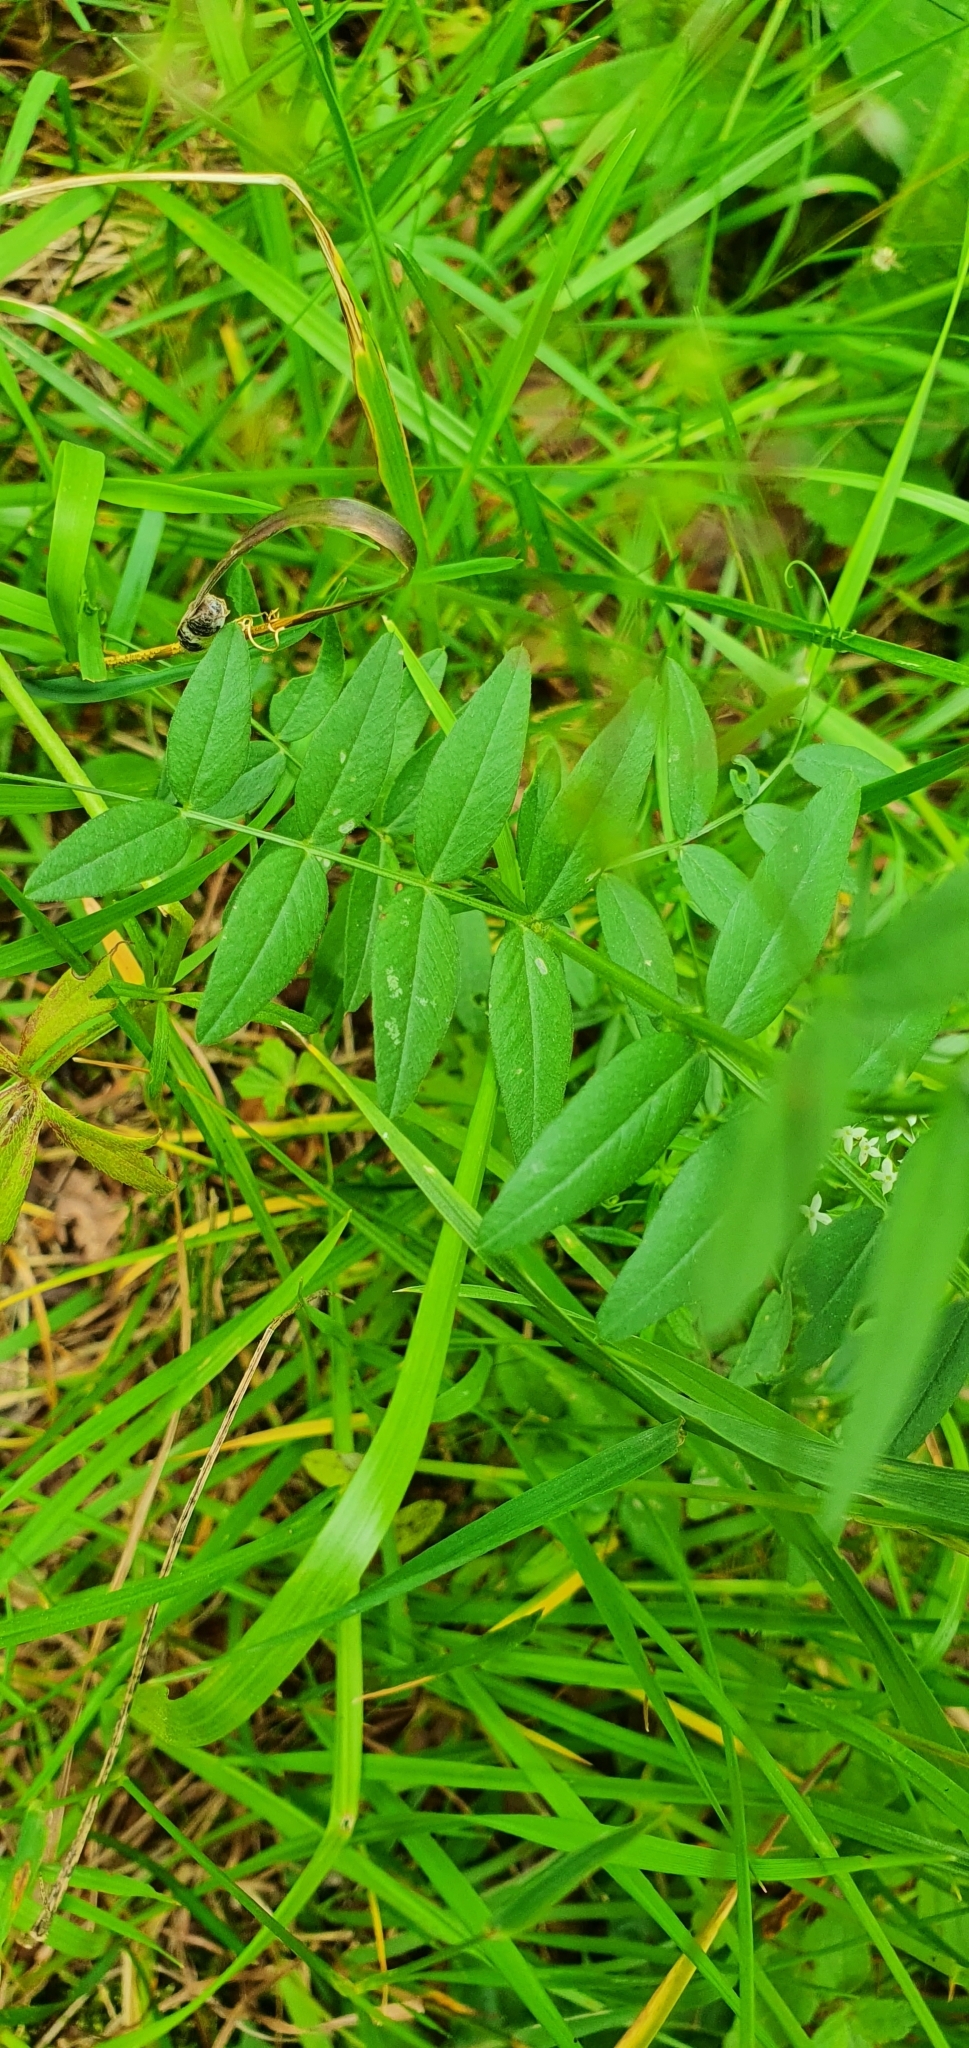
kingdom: Plantae
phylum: Tracheophyta
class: Magnoliopsida
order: Fabales
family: Fabaceae
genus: Vicia
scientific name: Vicia sepium
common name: Bush vetch
